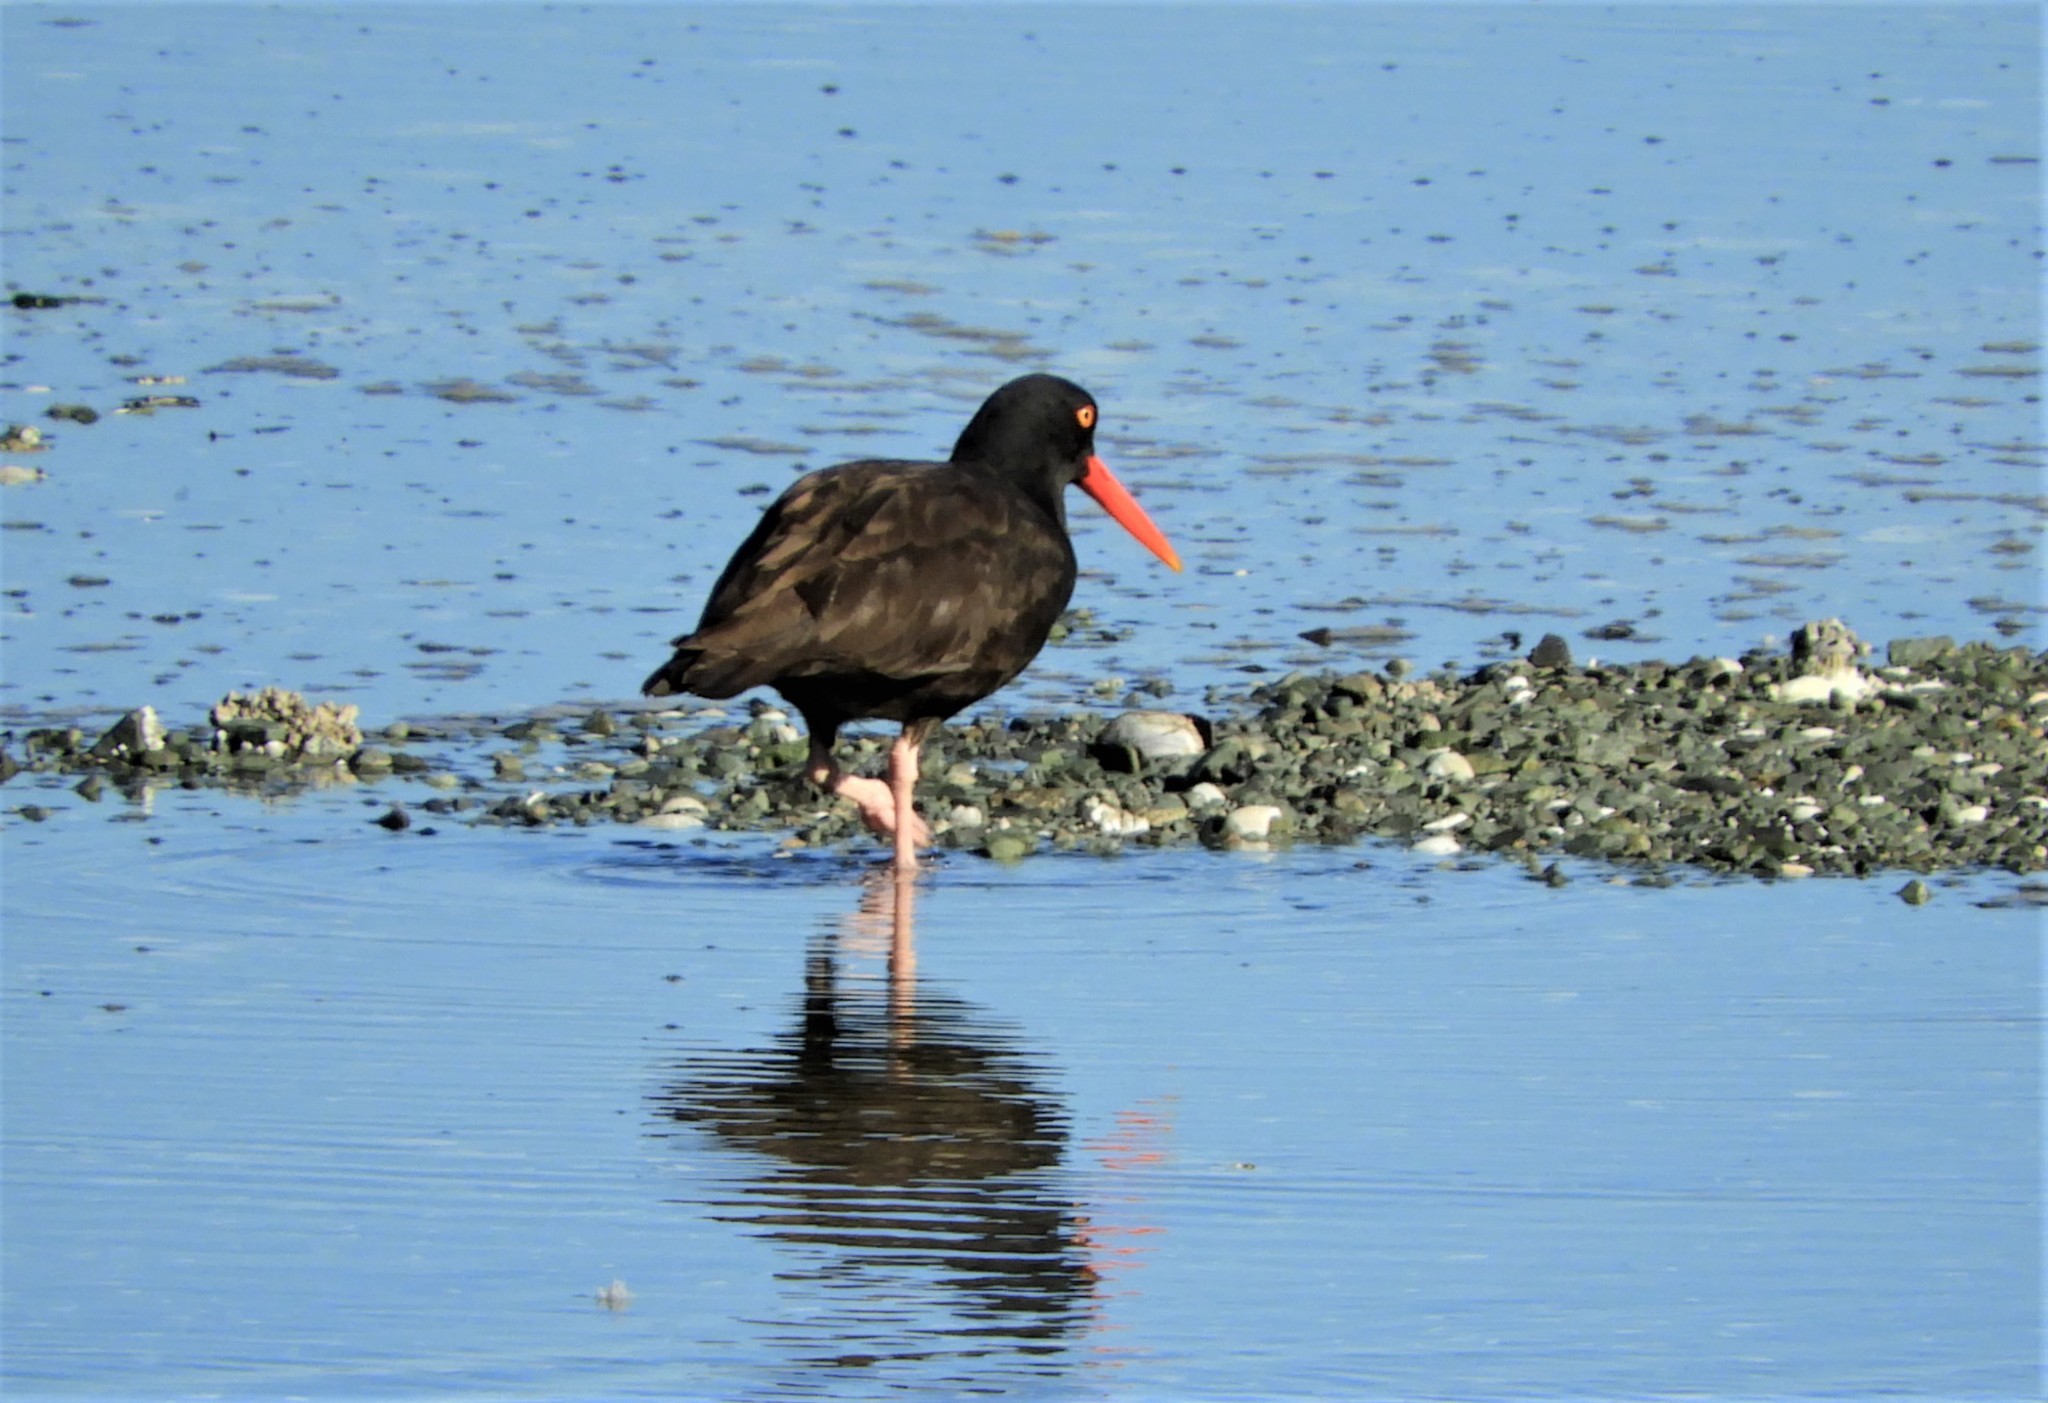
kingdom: Animalia
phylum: Chordata
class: Aves
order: Charadriiformes
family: Haematopodidae
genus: Haematopus
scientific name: Haematopus bachmani
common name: Black oystercatcher
